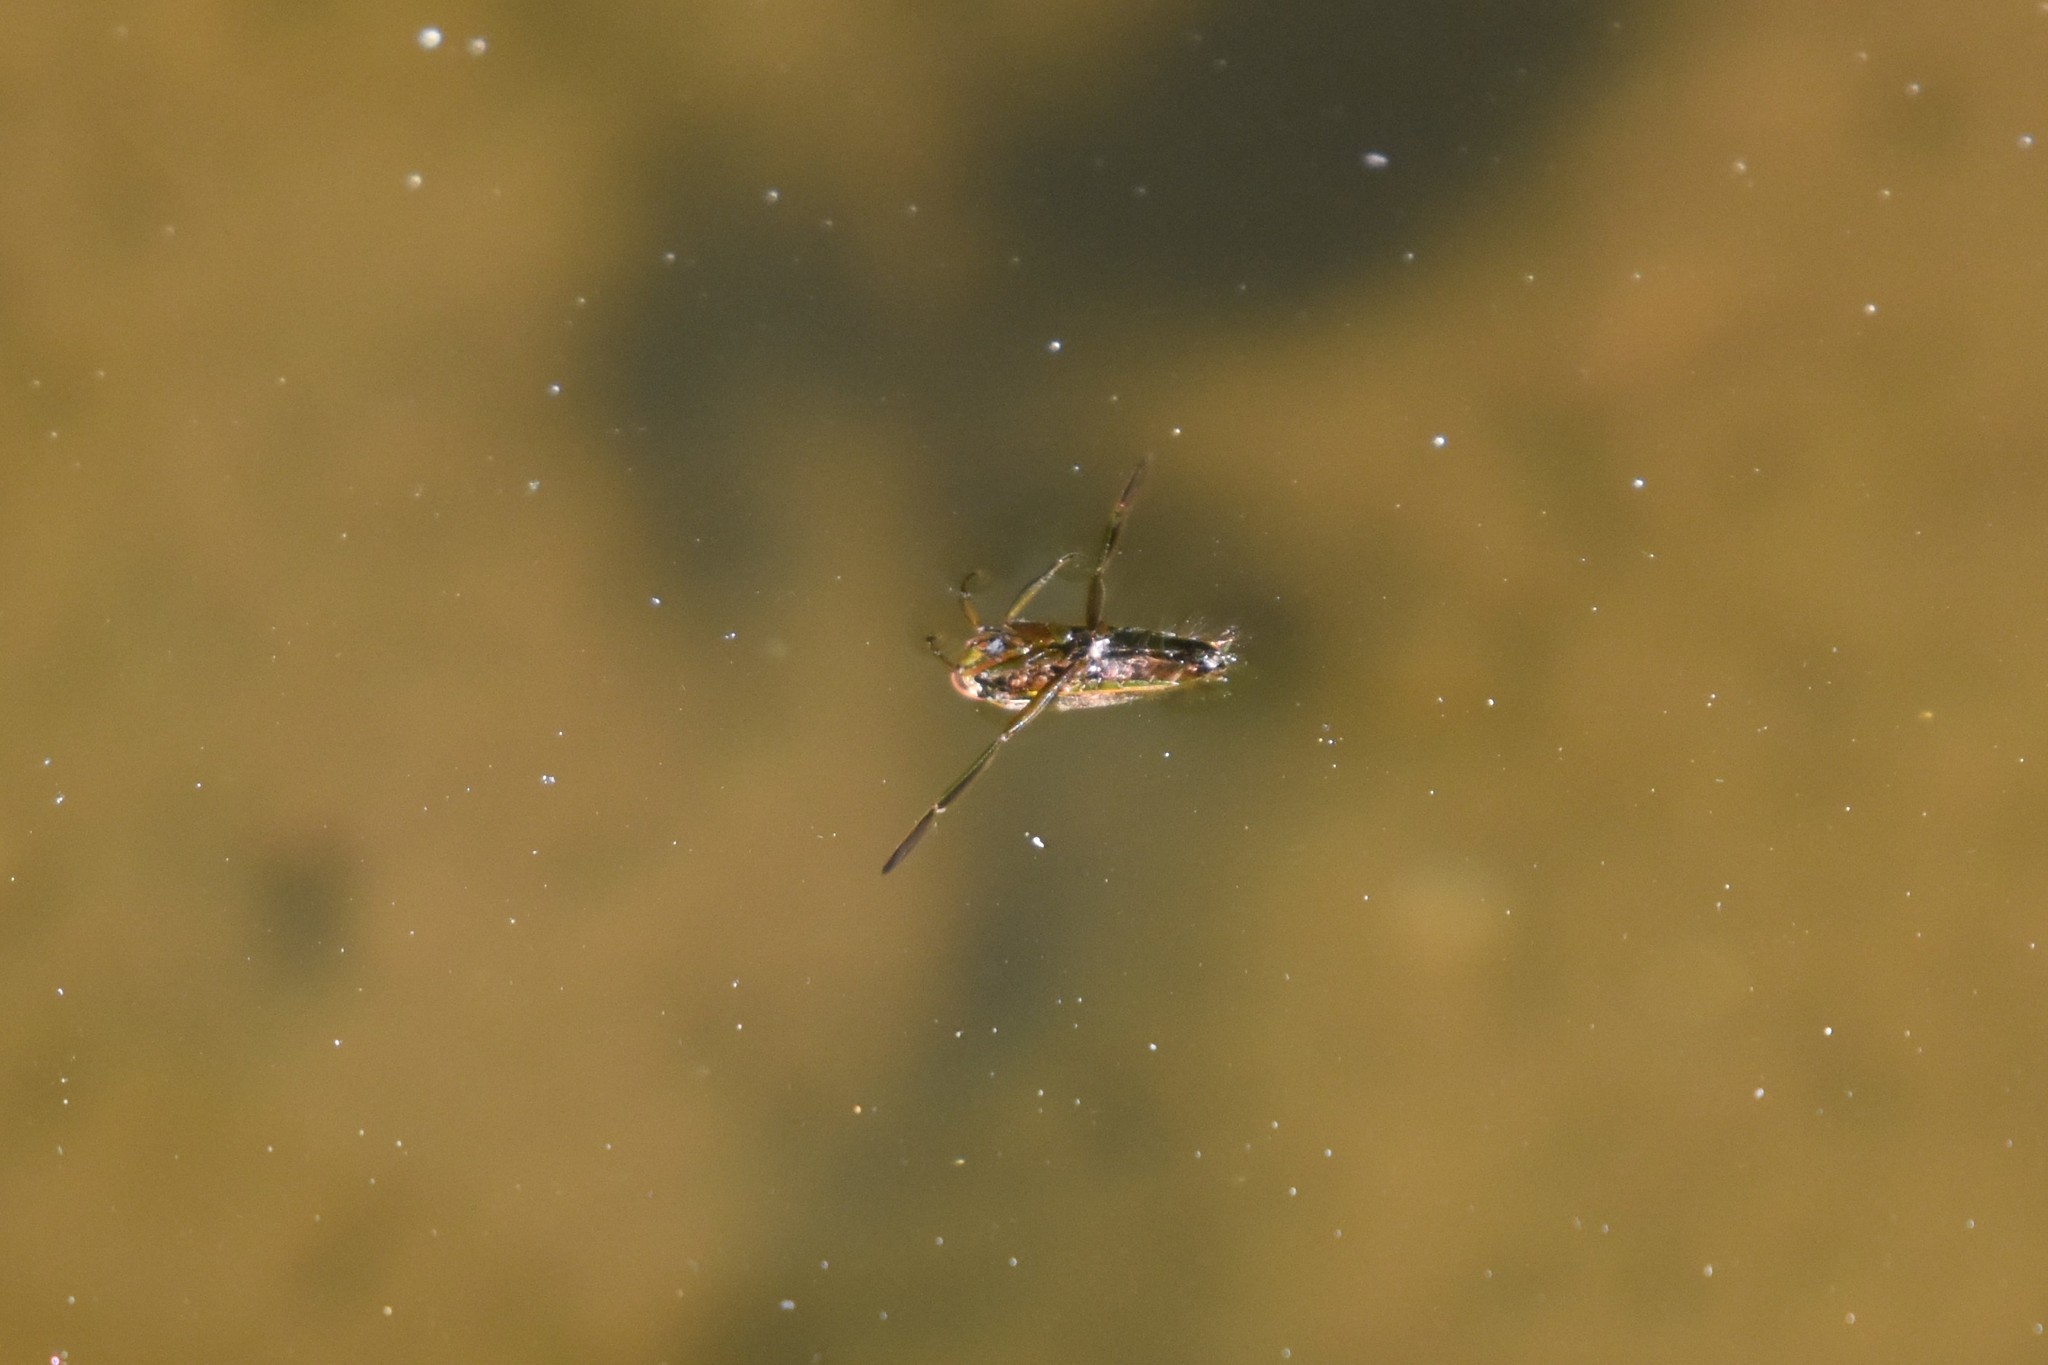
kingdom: Animalia
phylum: Arthropoda
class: Insecta
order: Hemiptera
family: Notonectidae
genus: Notonecta
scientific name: Notonecta
